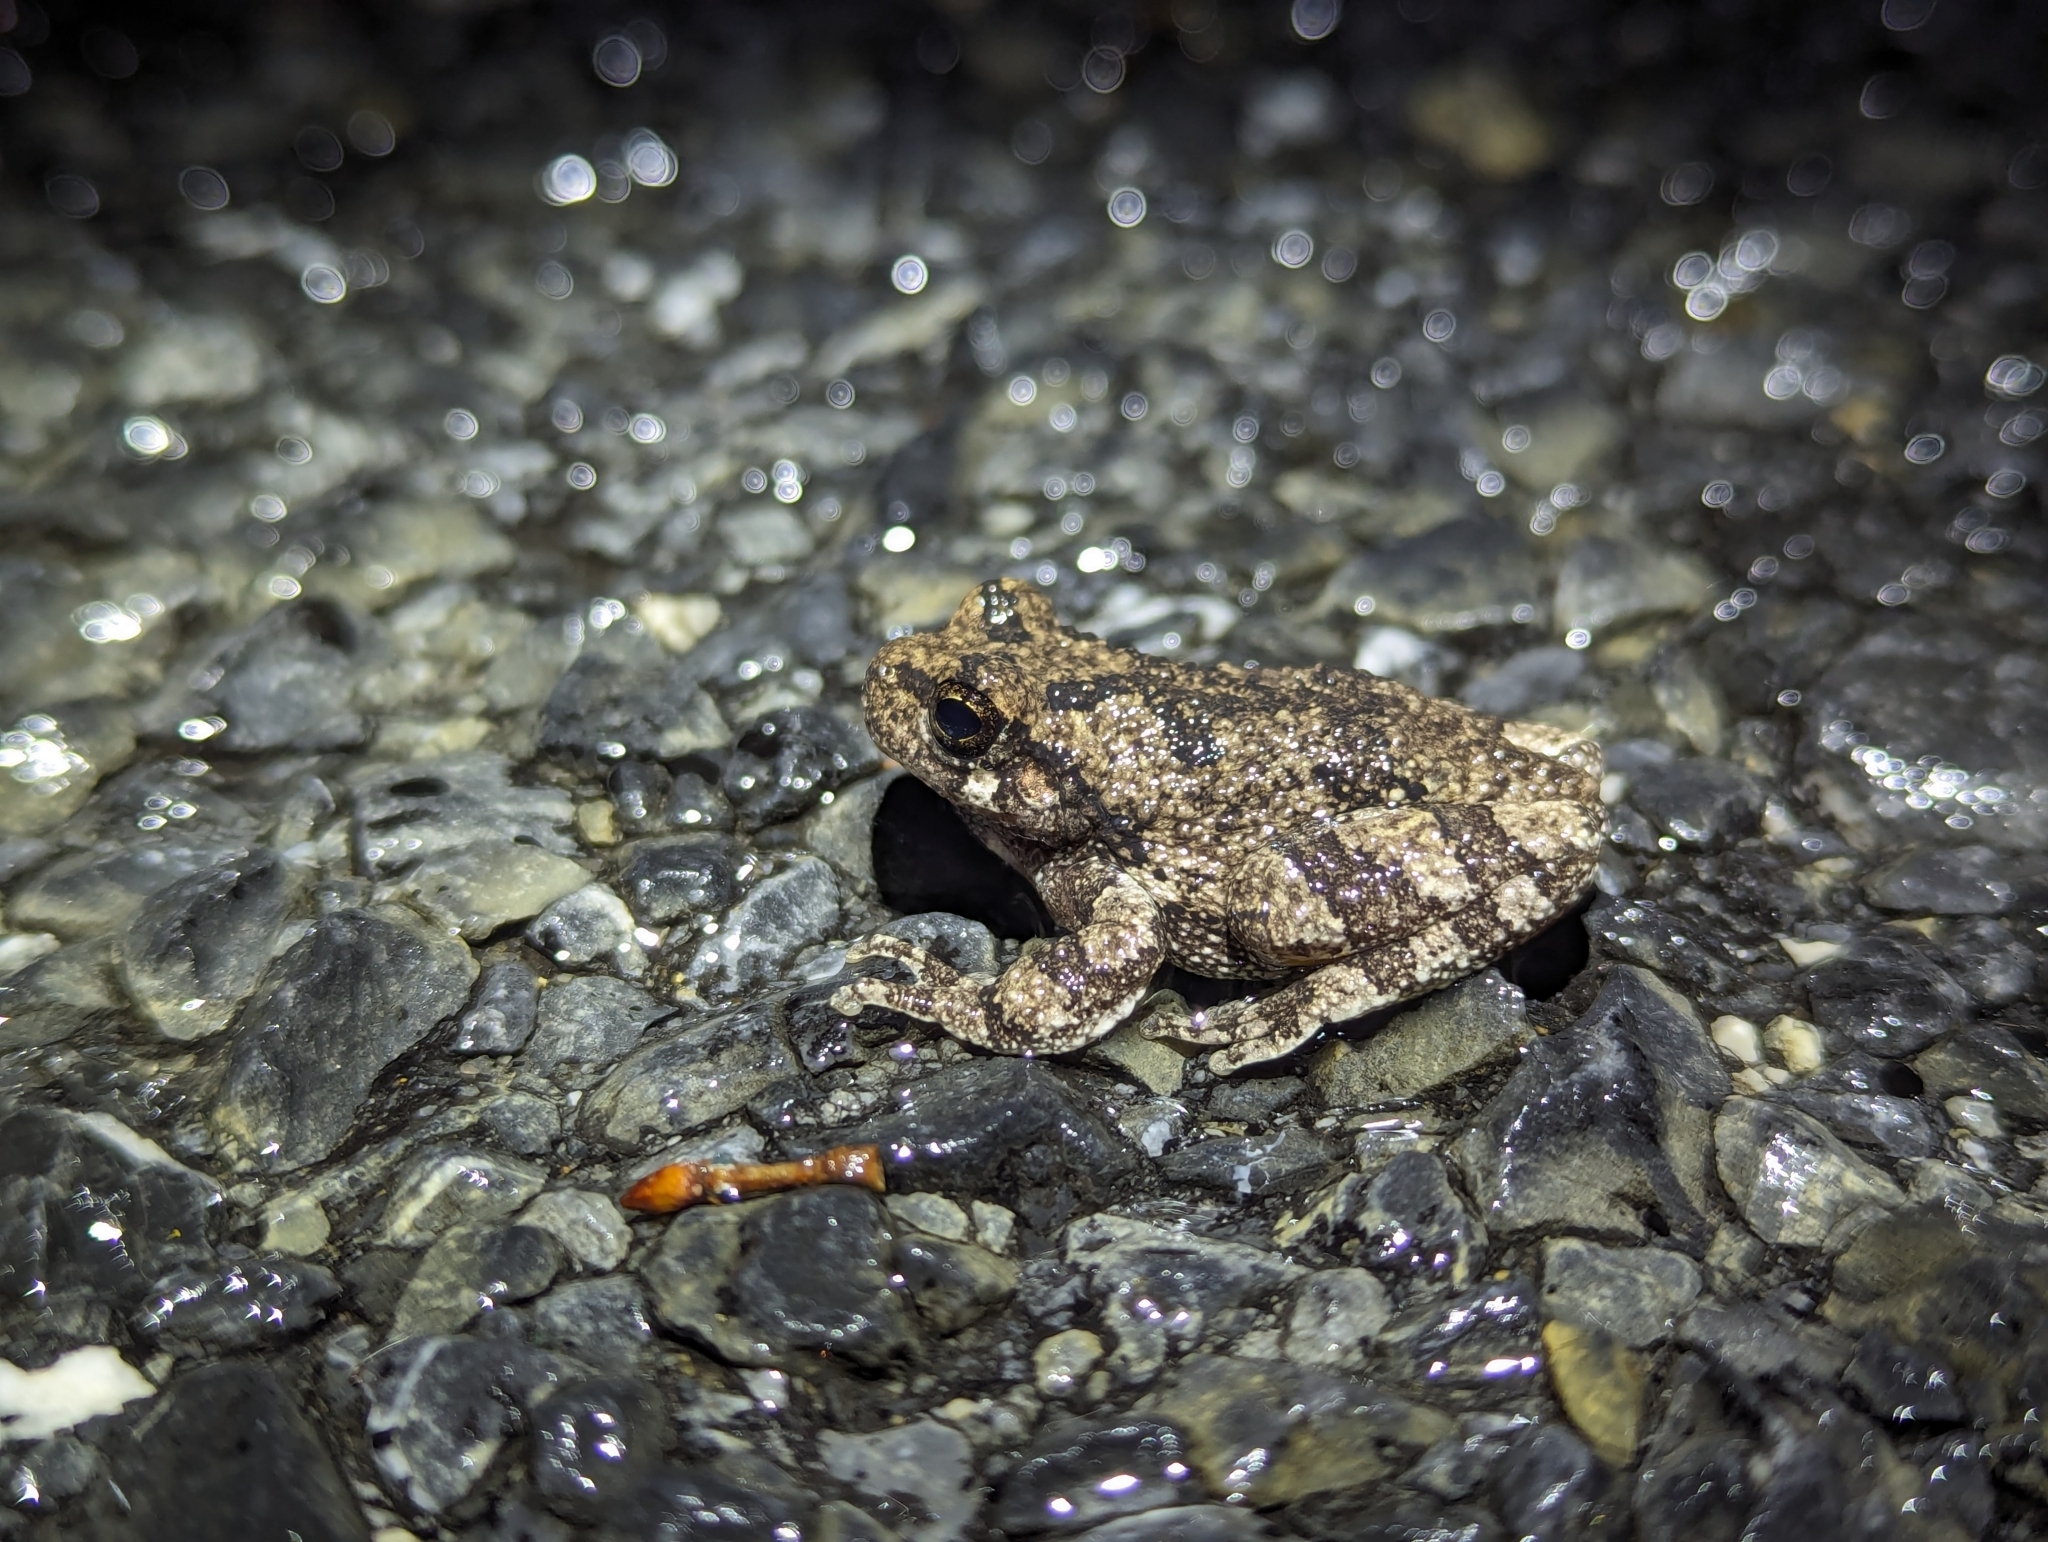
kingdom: Animalia
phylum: Chordata
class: Amphibia
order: Anura
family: Hylidae
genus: Hyla
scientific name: Hyla
